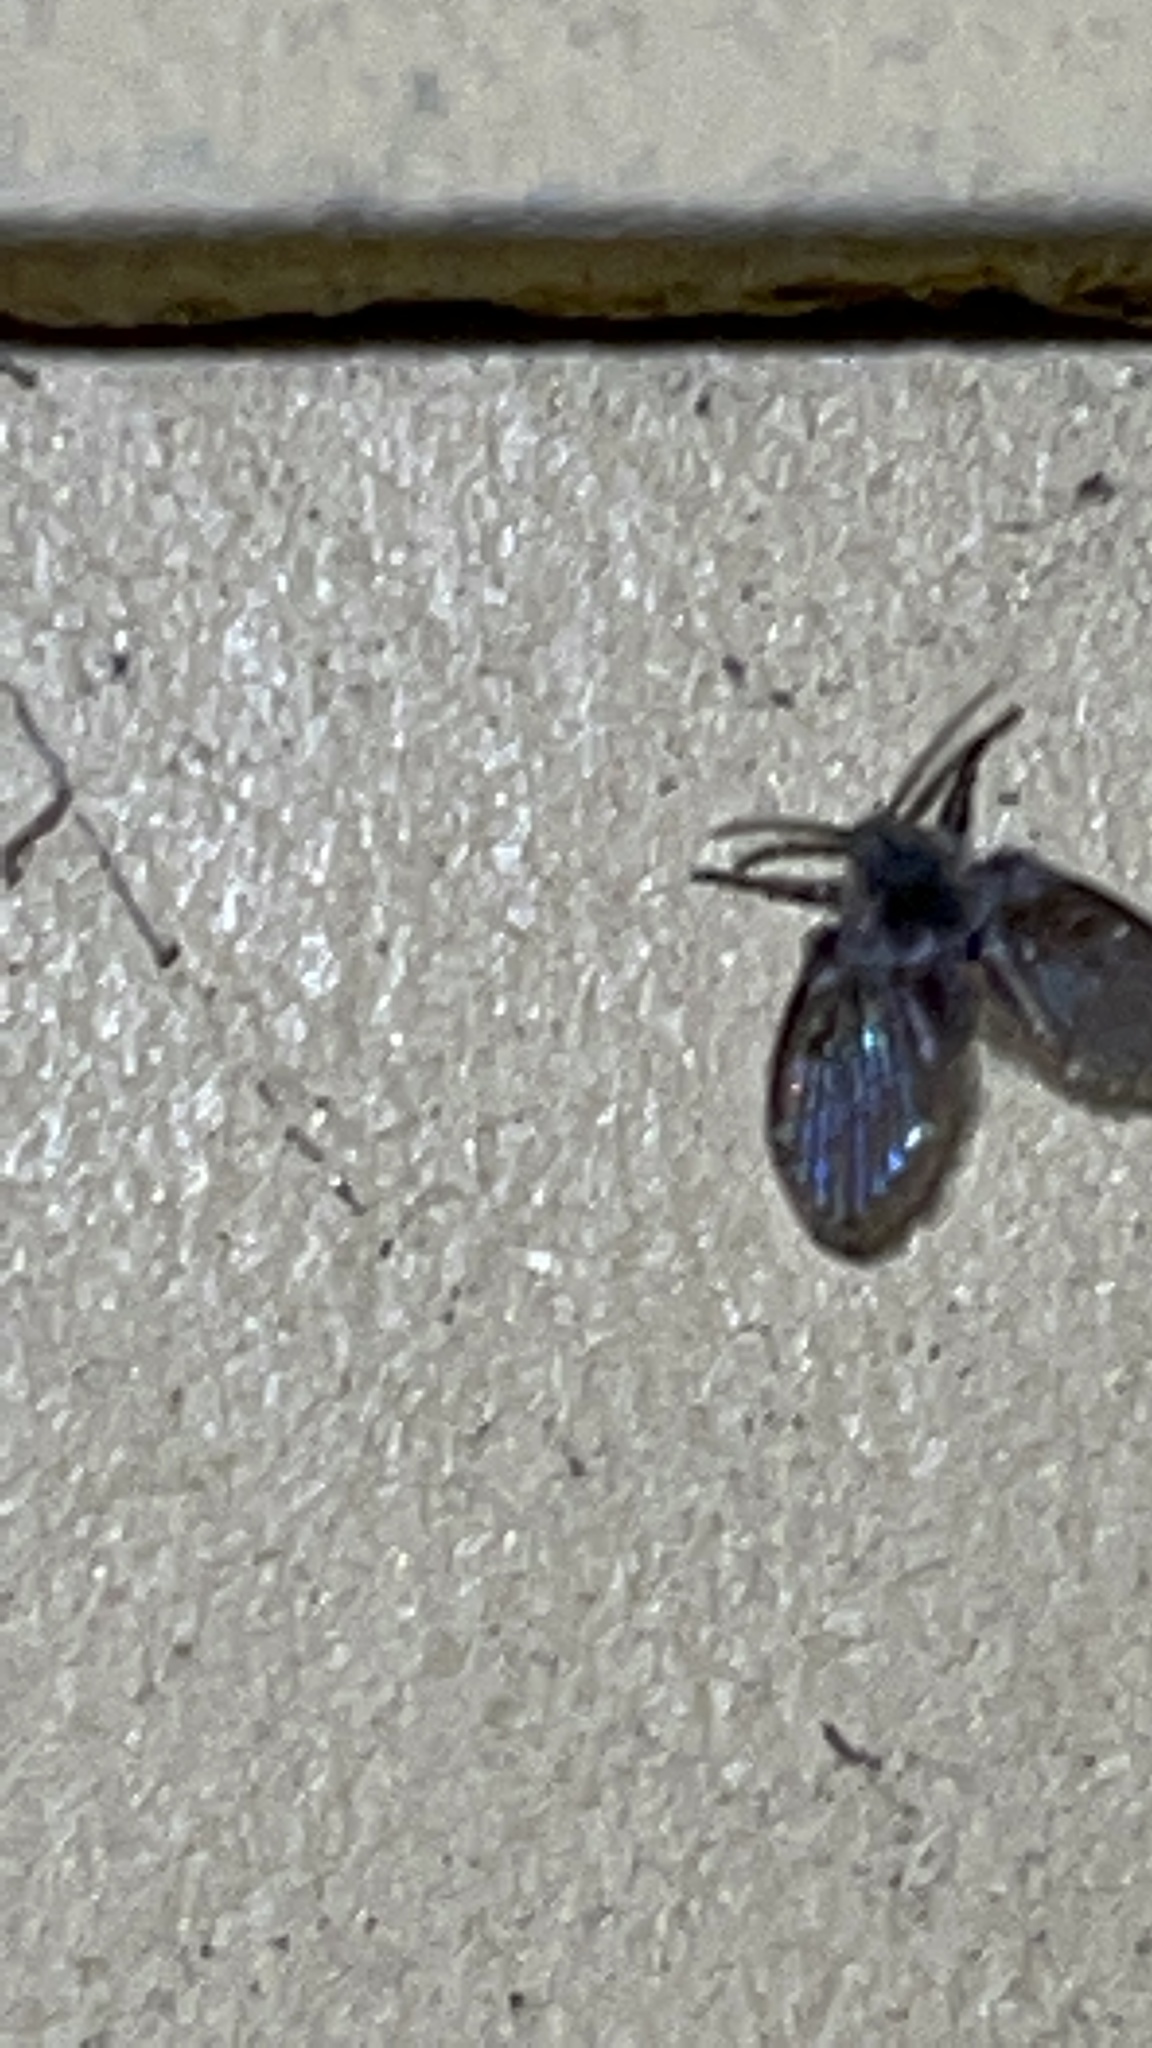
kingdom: Animalia
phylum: Arthropoda
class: Insecta
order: Diptera
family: Psychodidae
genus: Clogmia
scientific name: Clogmia albipunctatus
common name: White-spotted moth fly
